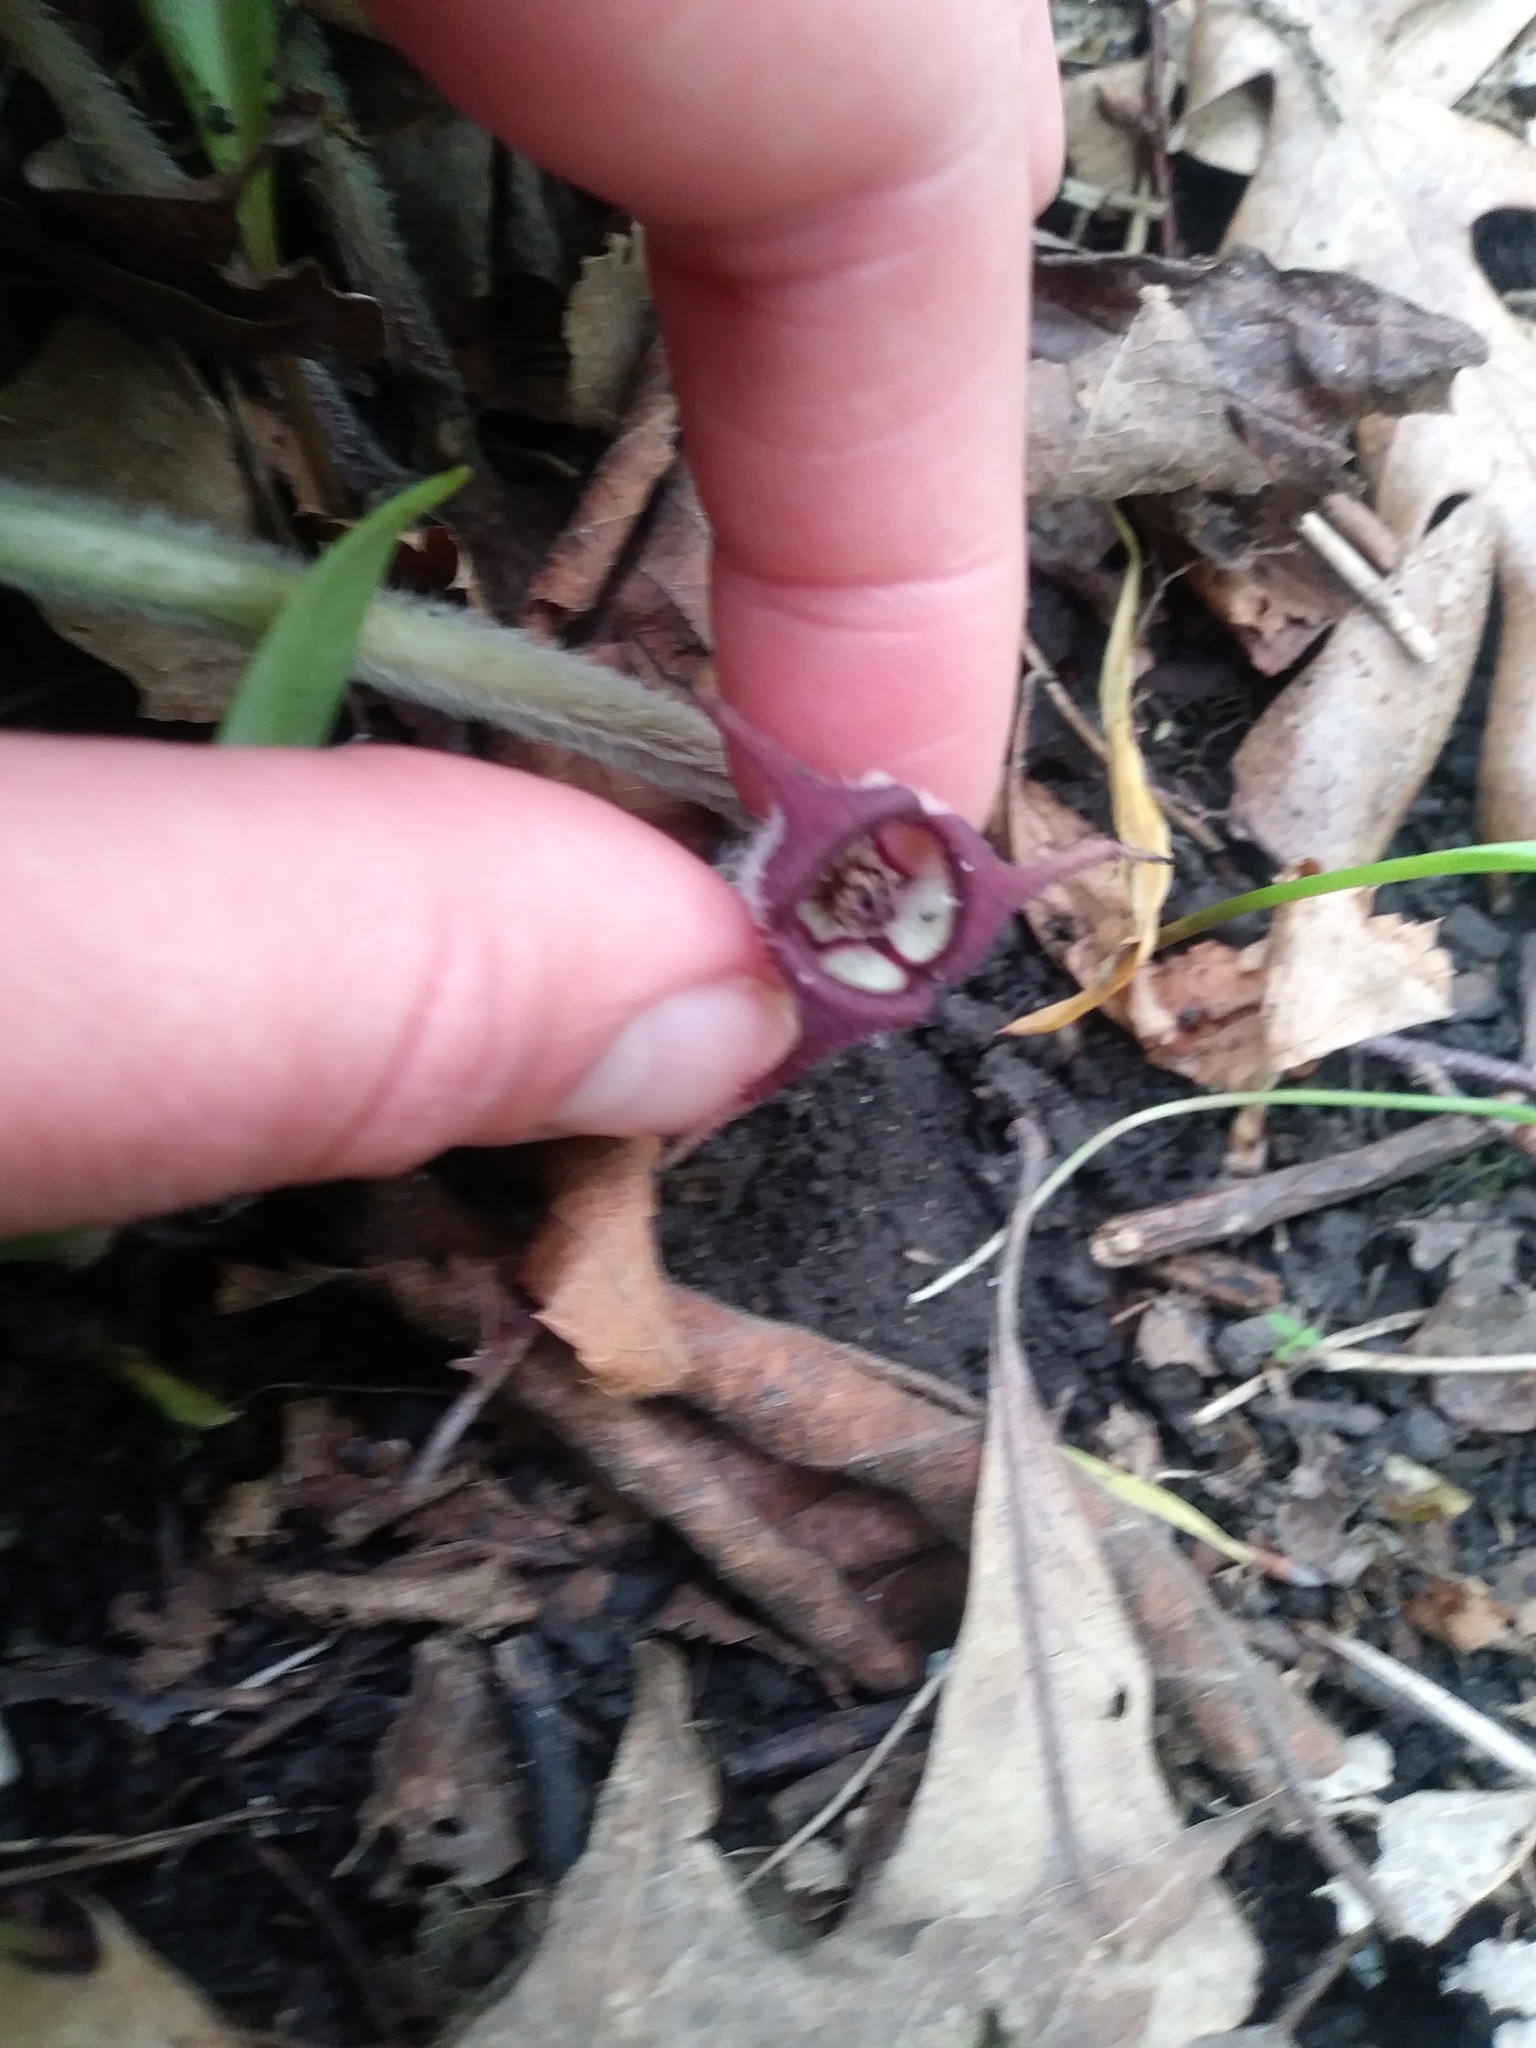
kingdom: Plantae
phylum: Tracheophyta
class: Magnoliopsida
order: Piperales
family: Aristolochiaceae
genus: Asarum
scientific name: Asarum canadense
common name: Wild ginger
